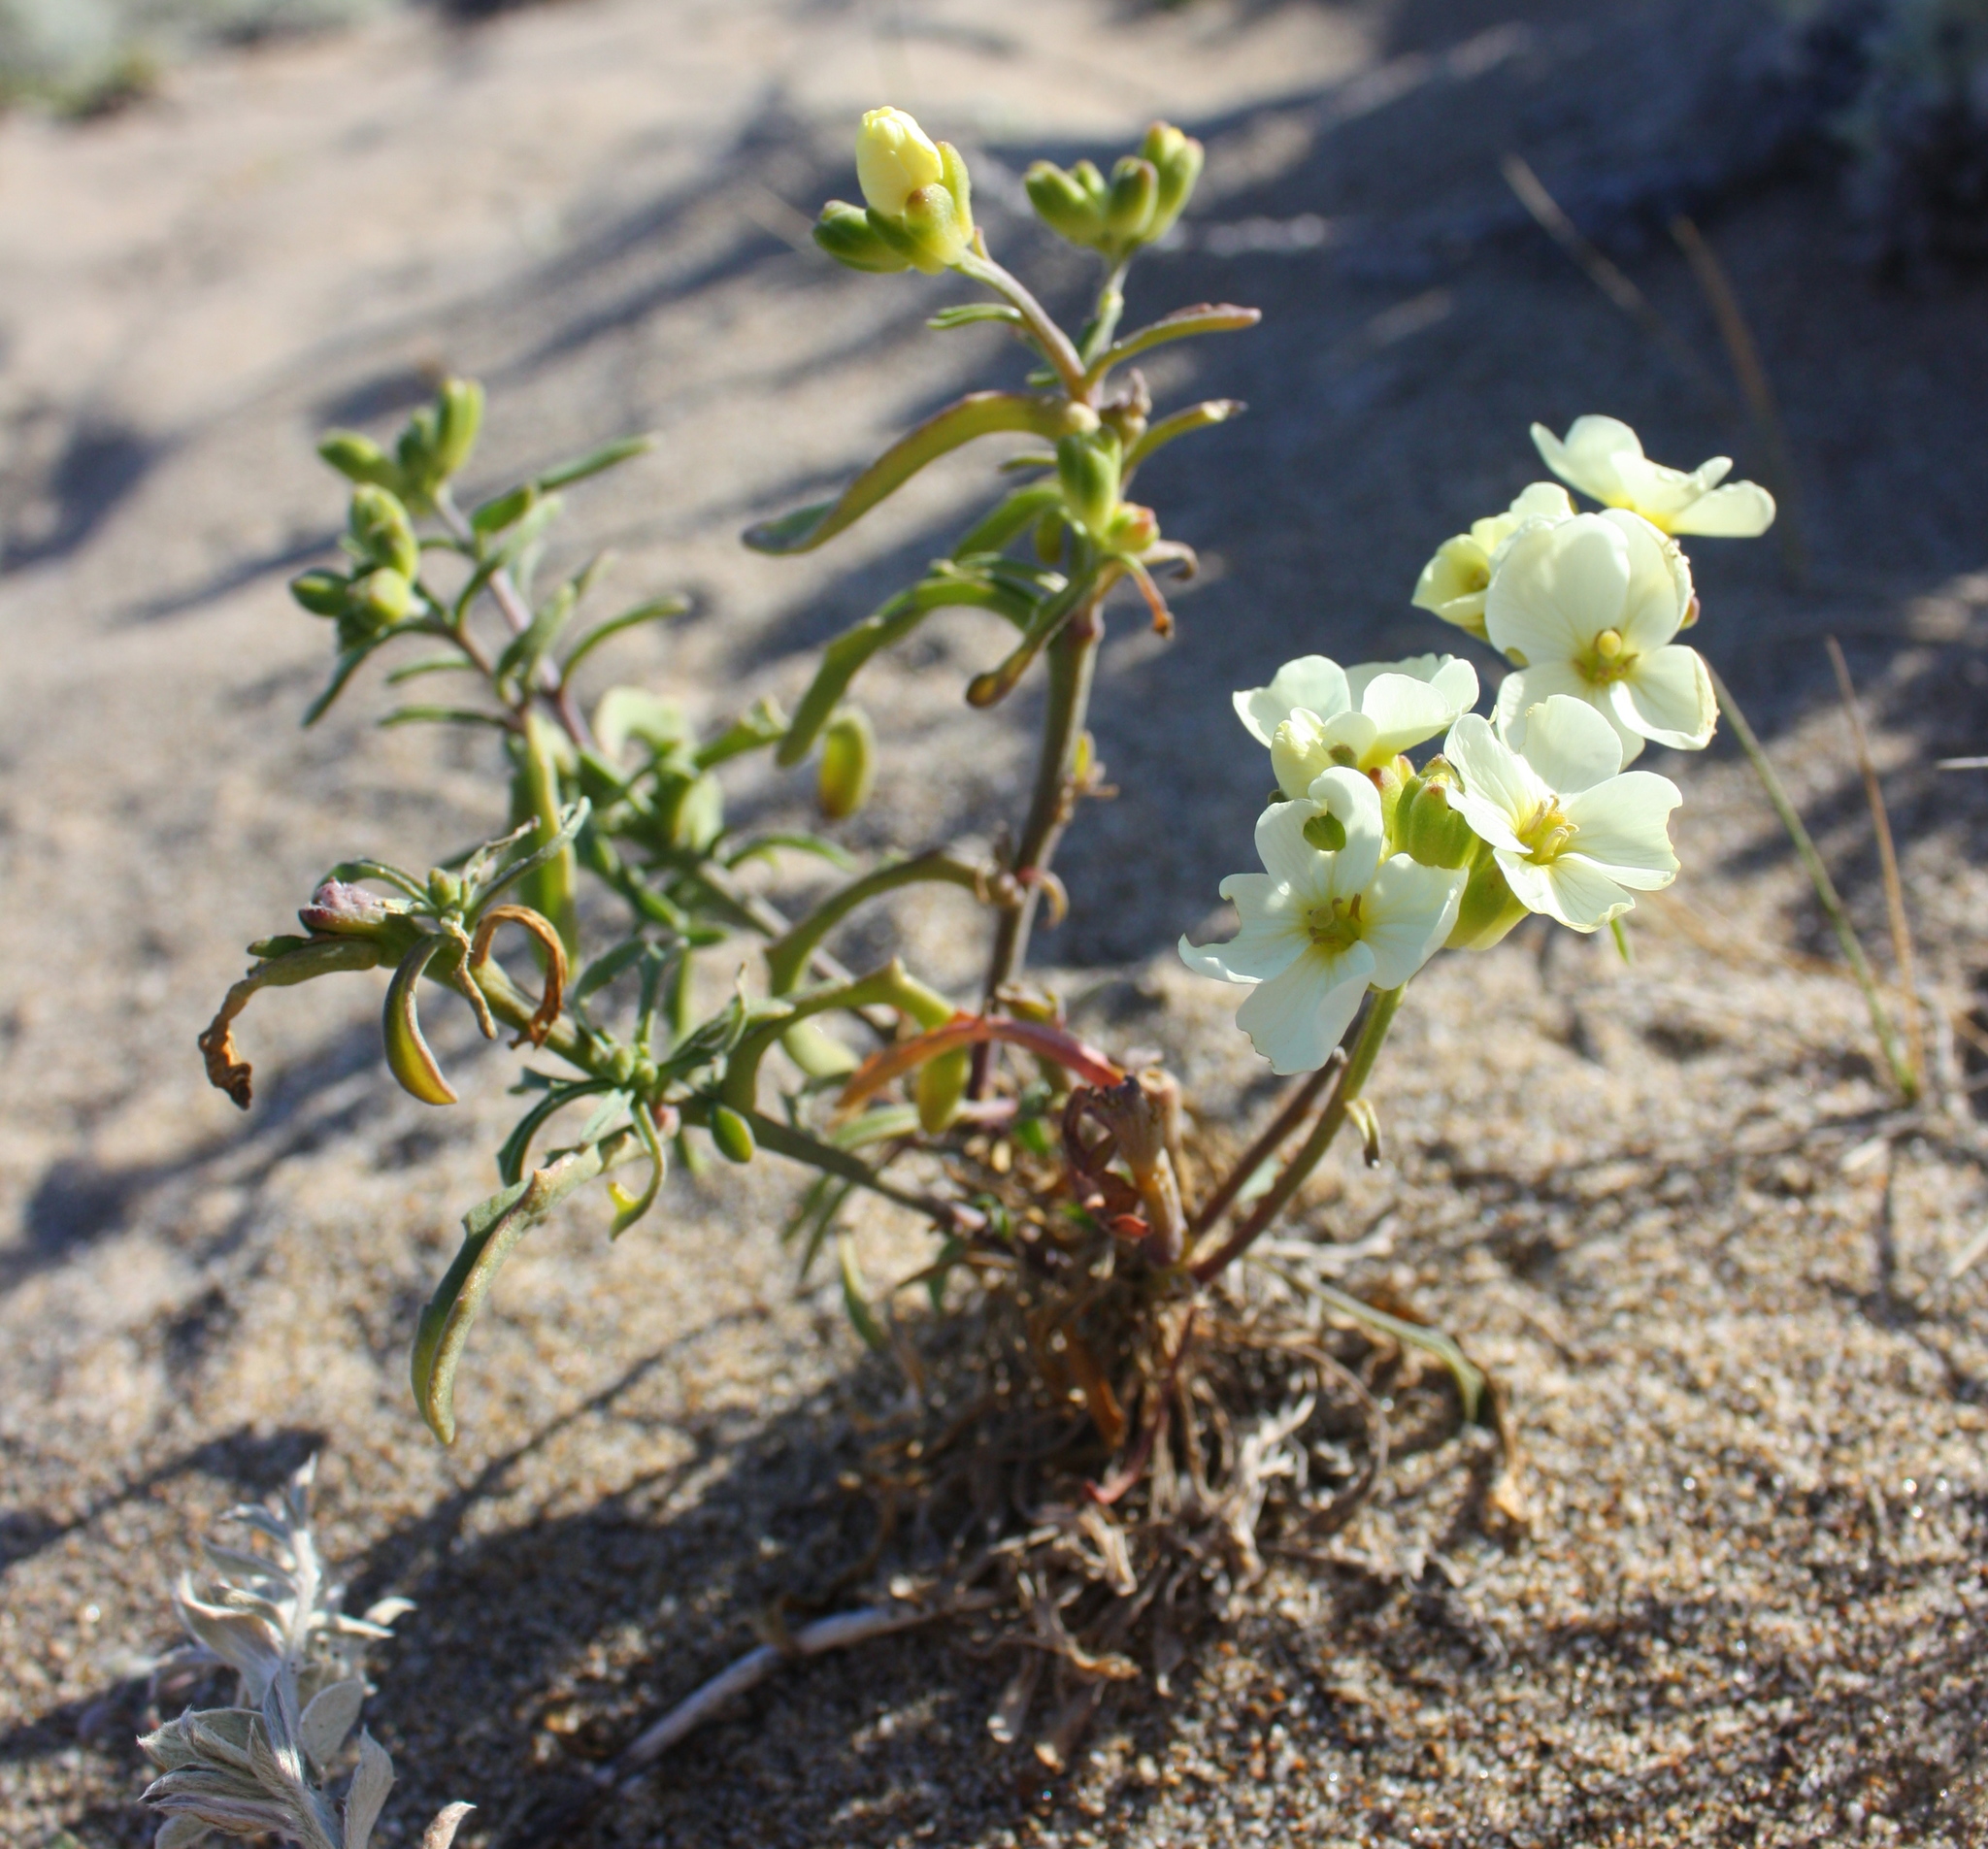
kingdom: Plantae
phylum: Tracheophyta
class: Magnoliopsida
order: Brassicales
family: Brassicaceae
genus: Erysimum
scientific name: Erysimum concinnum
